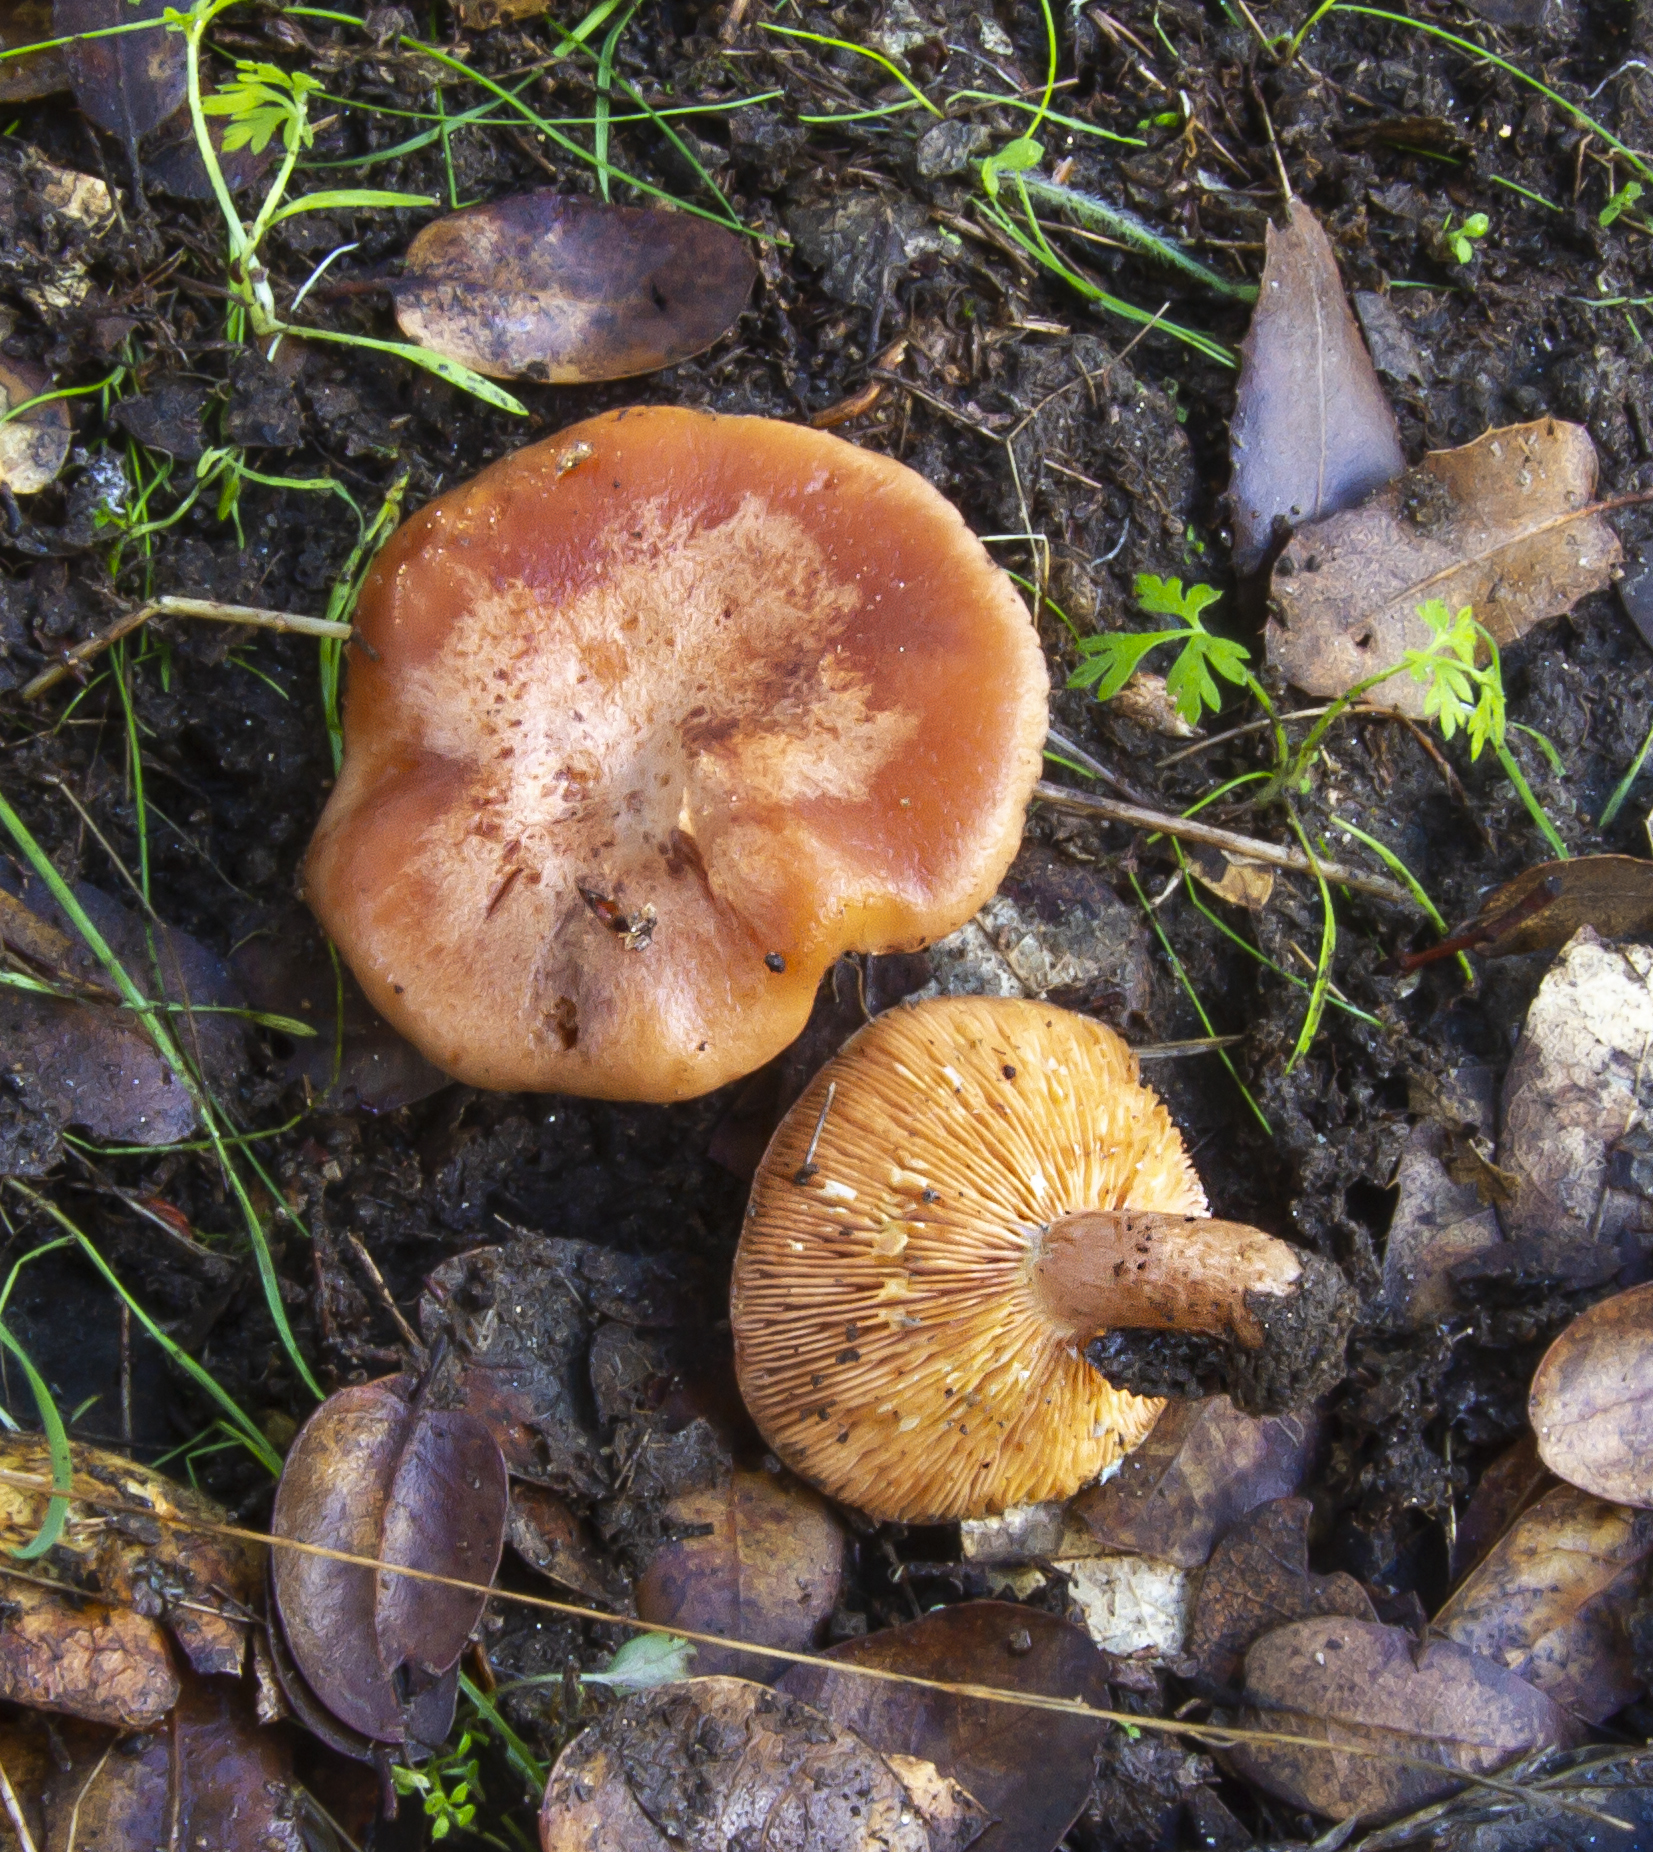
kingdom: Fungi
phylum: Basidiomycota
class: Agaricomycetes
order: Russulales
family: Russulaceae
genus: Lactarius
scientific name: Lactarius xanthogalactus
